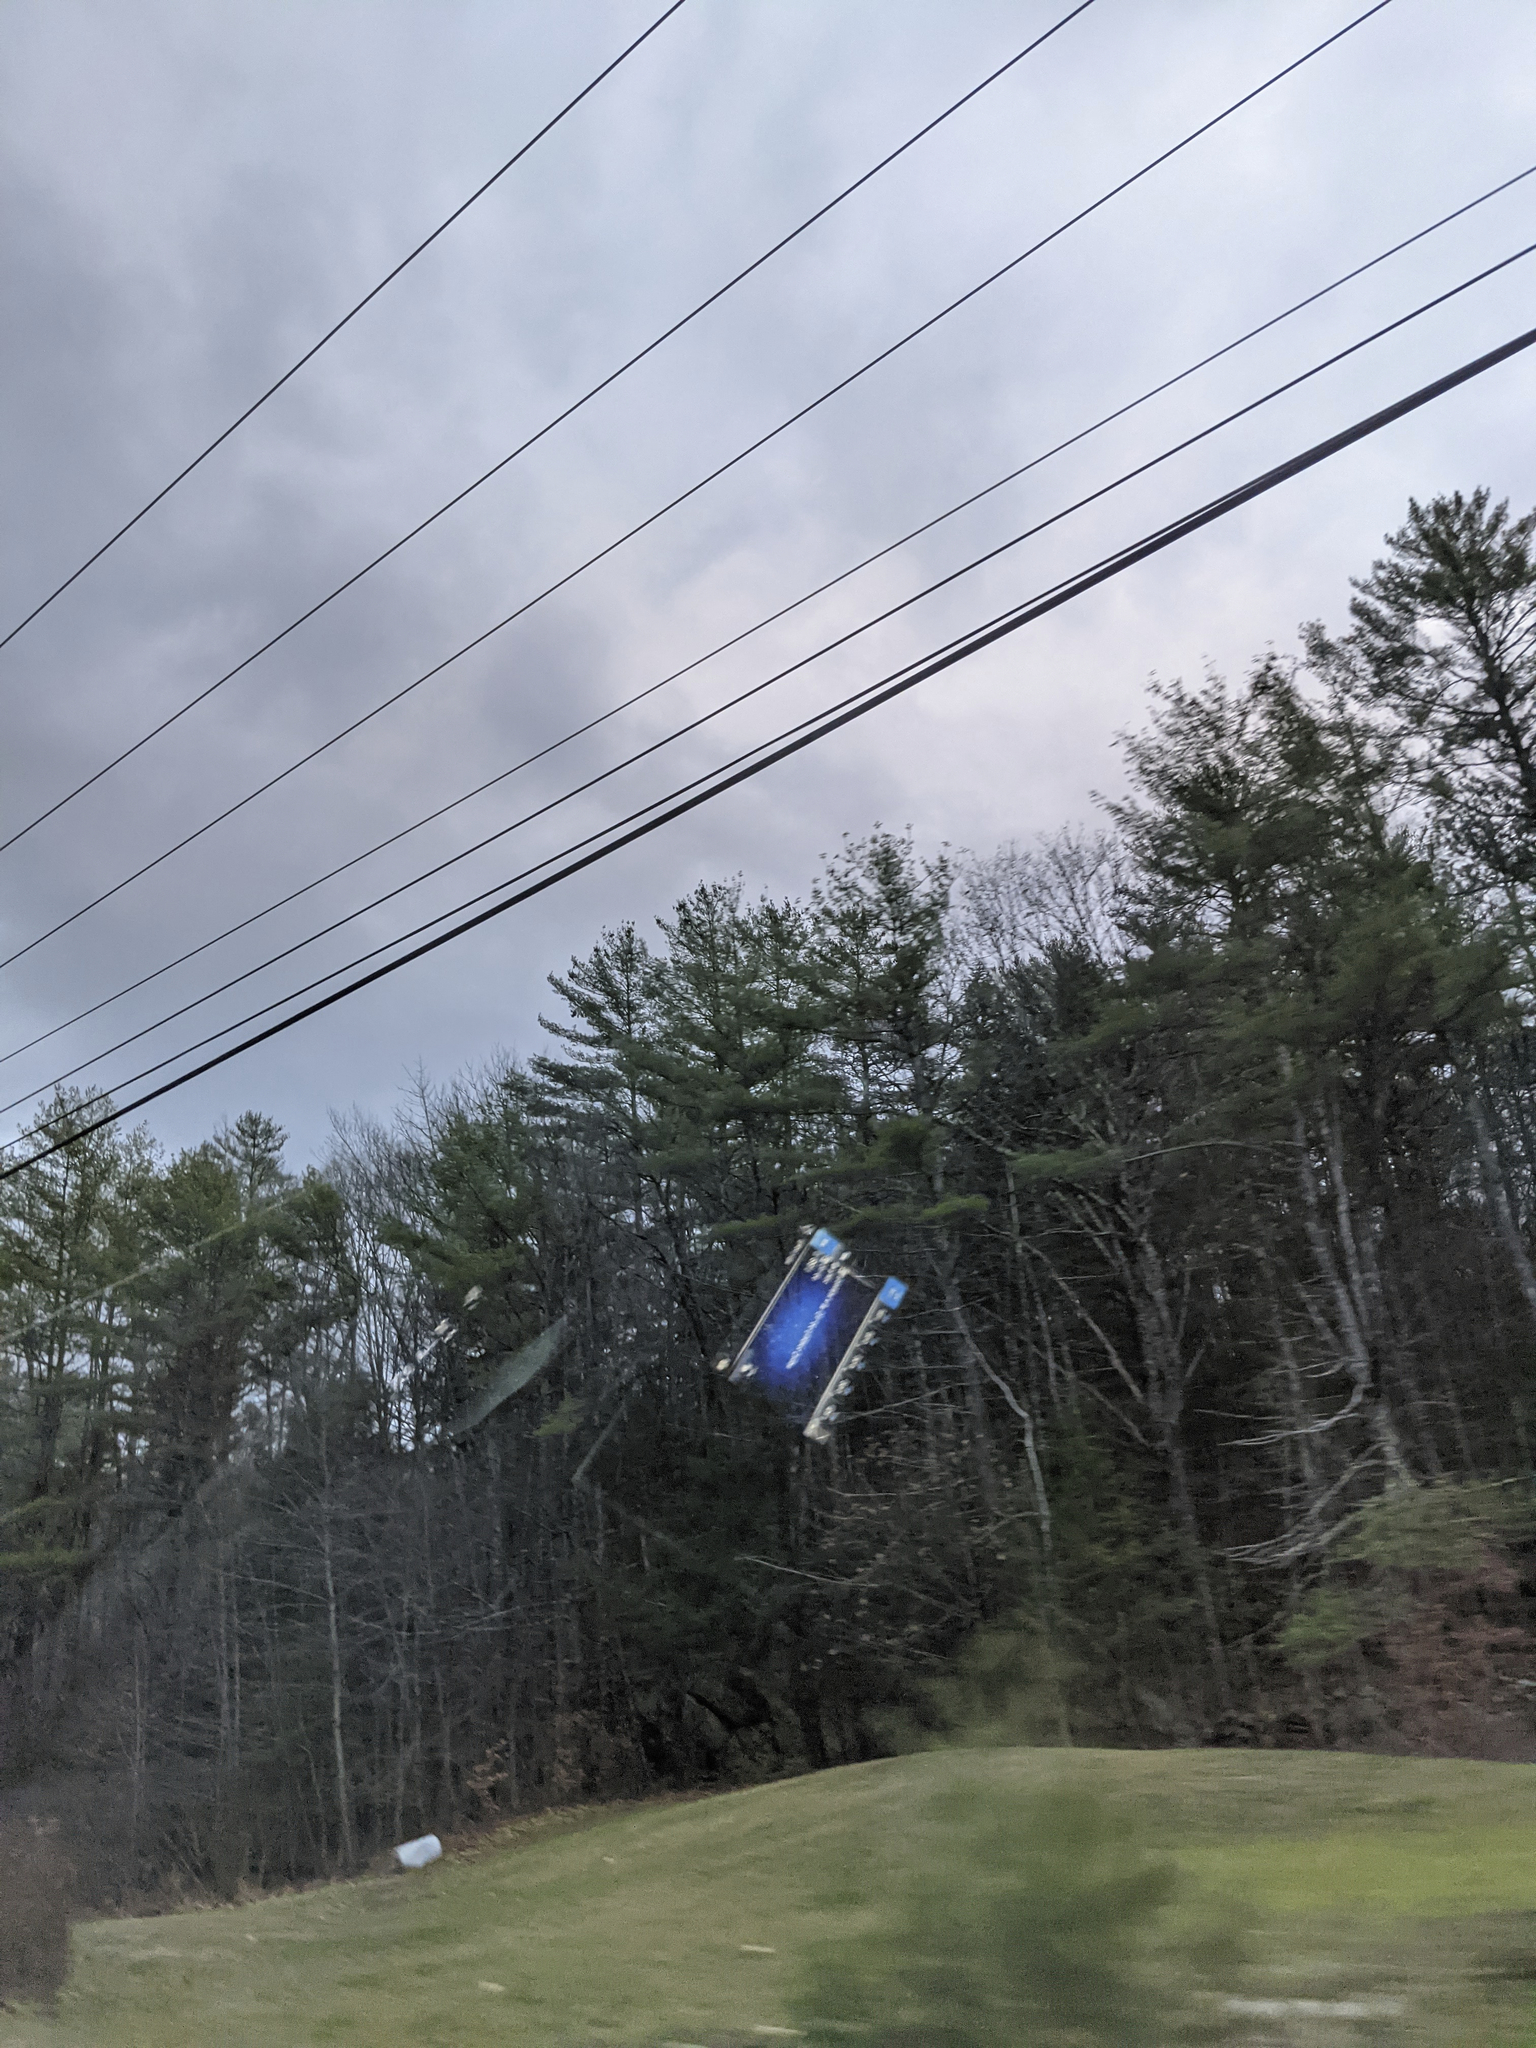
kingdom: Plantae
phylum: Tracheophyta
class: Pinopsida
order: Pinales
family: Pinaceae
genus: Pinus
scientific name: Pinus strobus
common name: Weymouth pine
